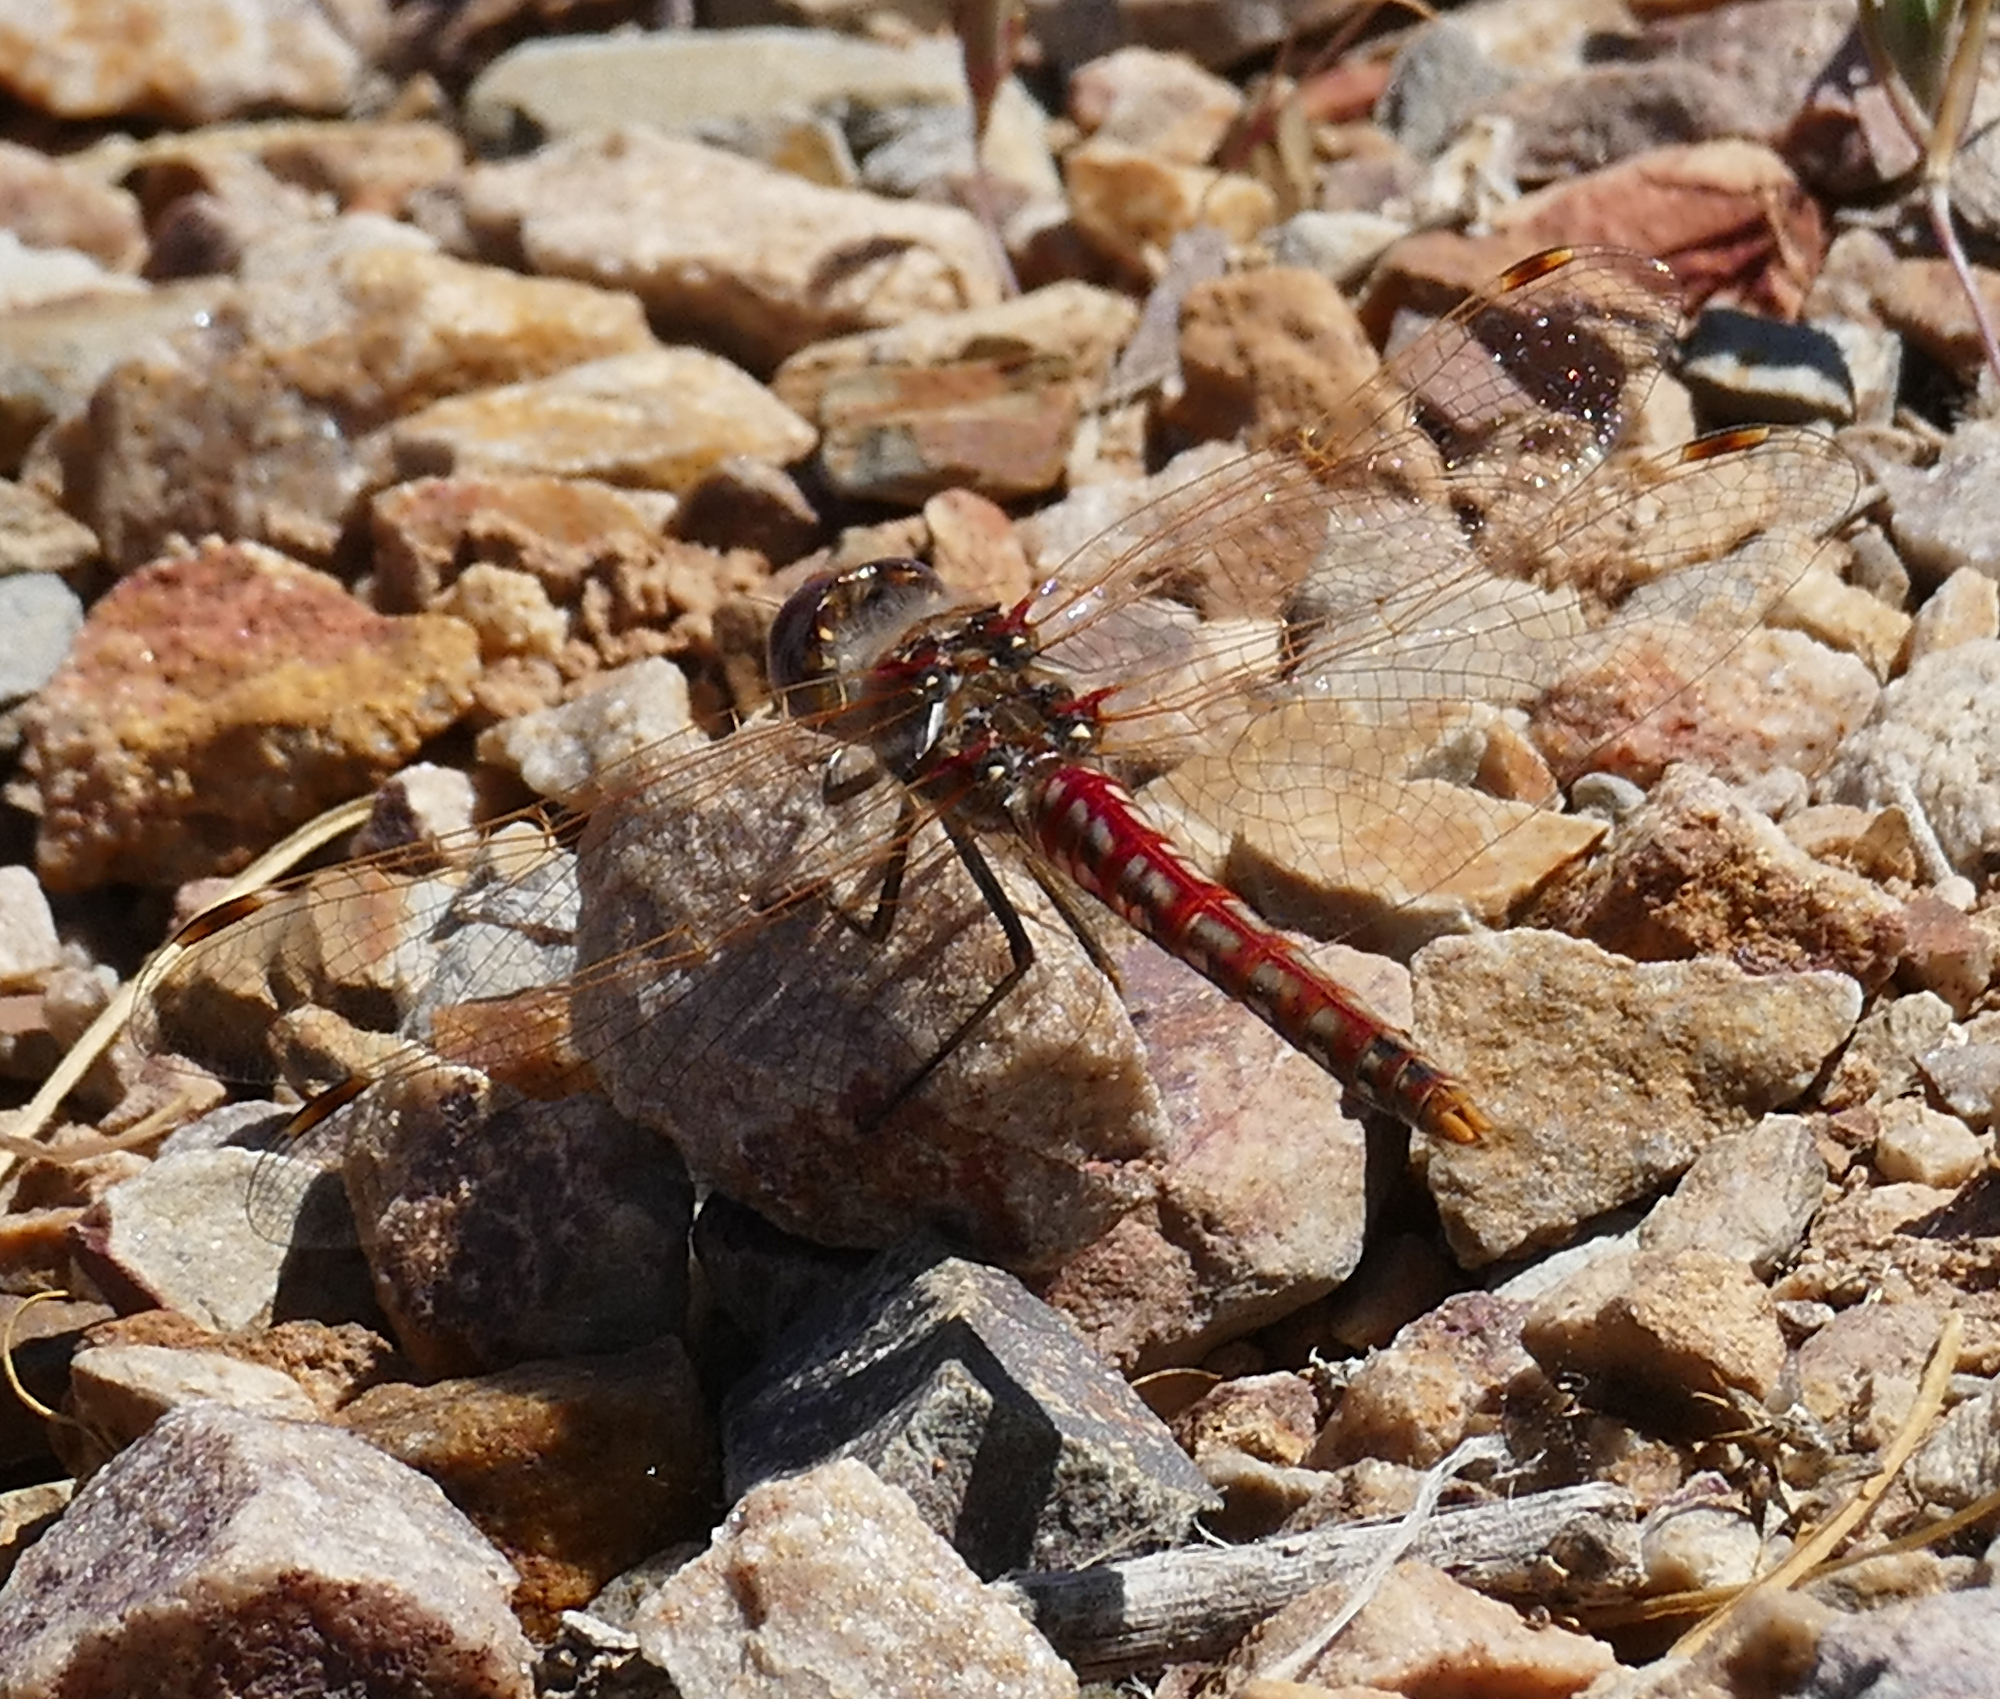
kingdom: Animalia
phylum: Arthropoda
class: Insecta
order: Odonata
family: Libellulidae
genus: Sympetrum
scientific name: Sympetrum corruptum
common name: Variegated meadowhawk
